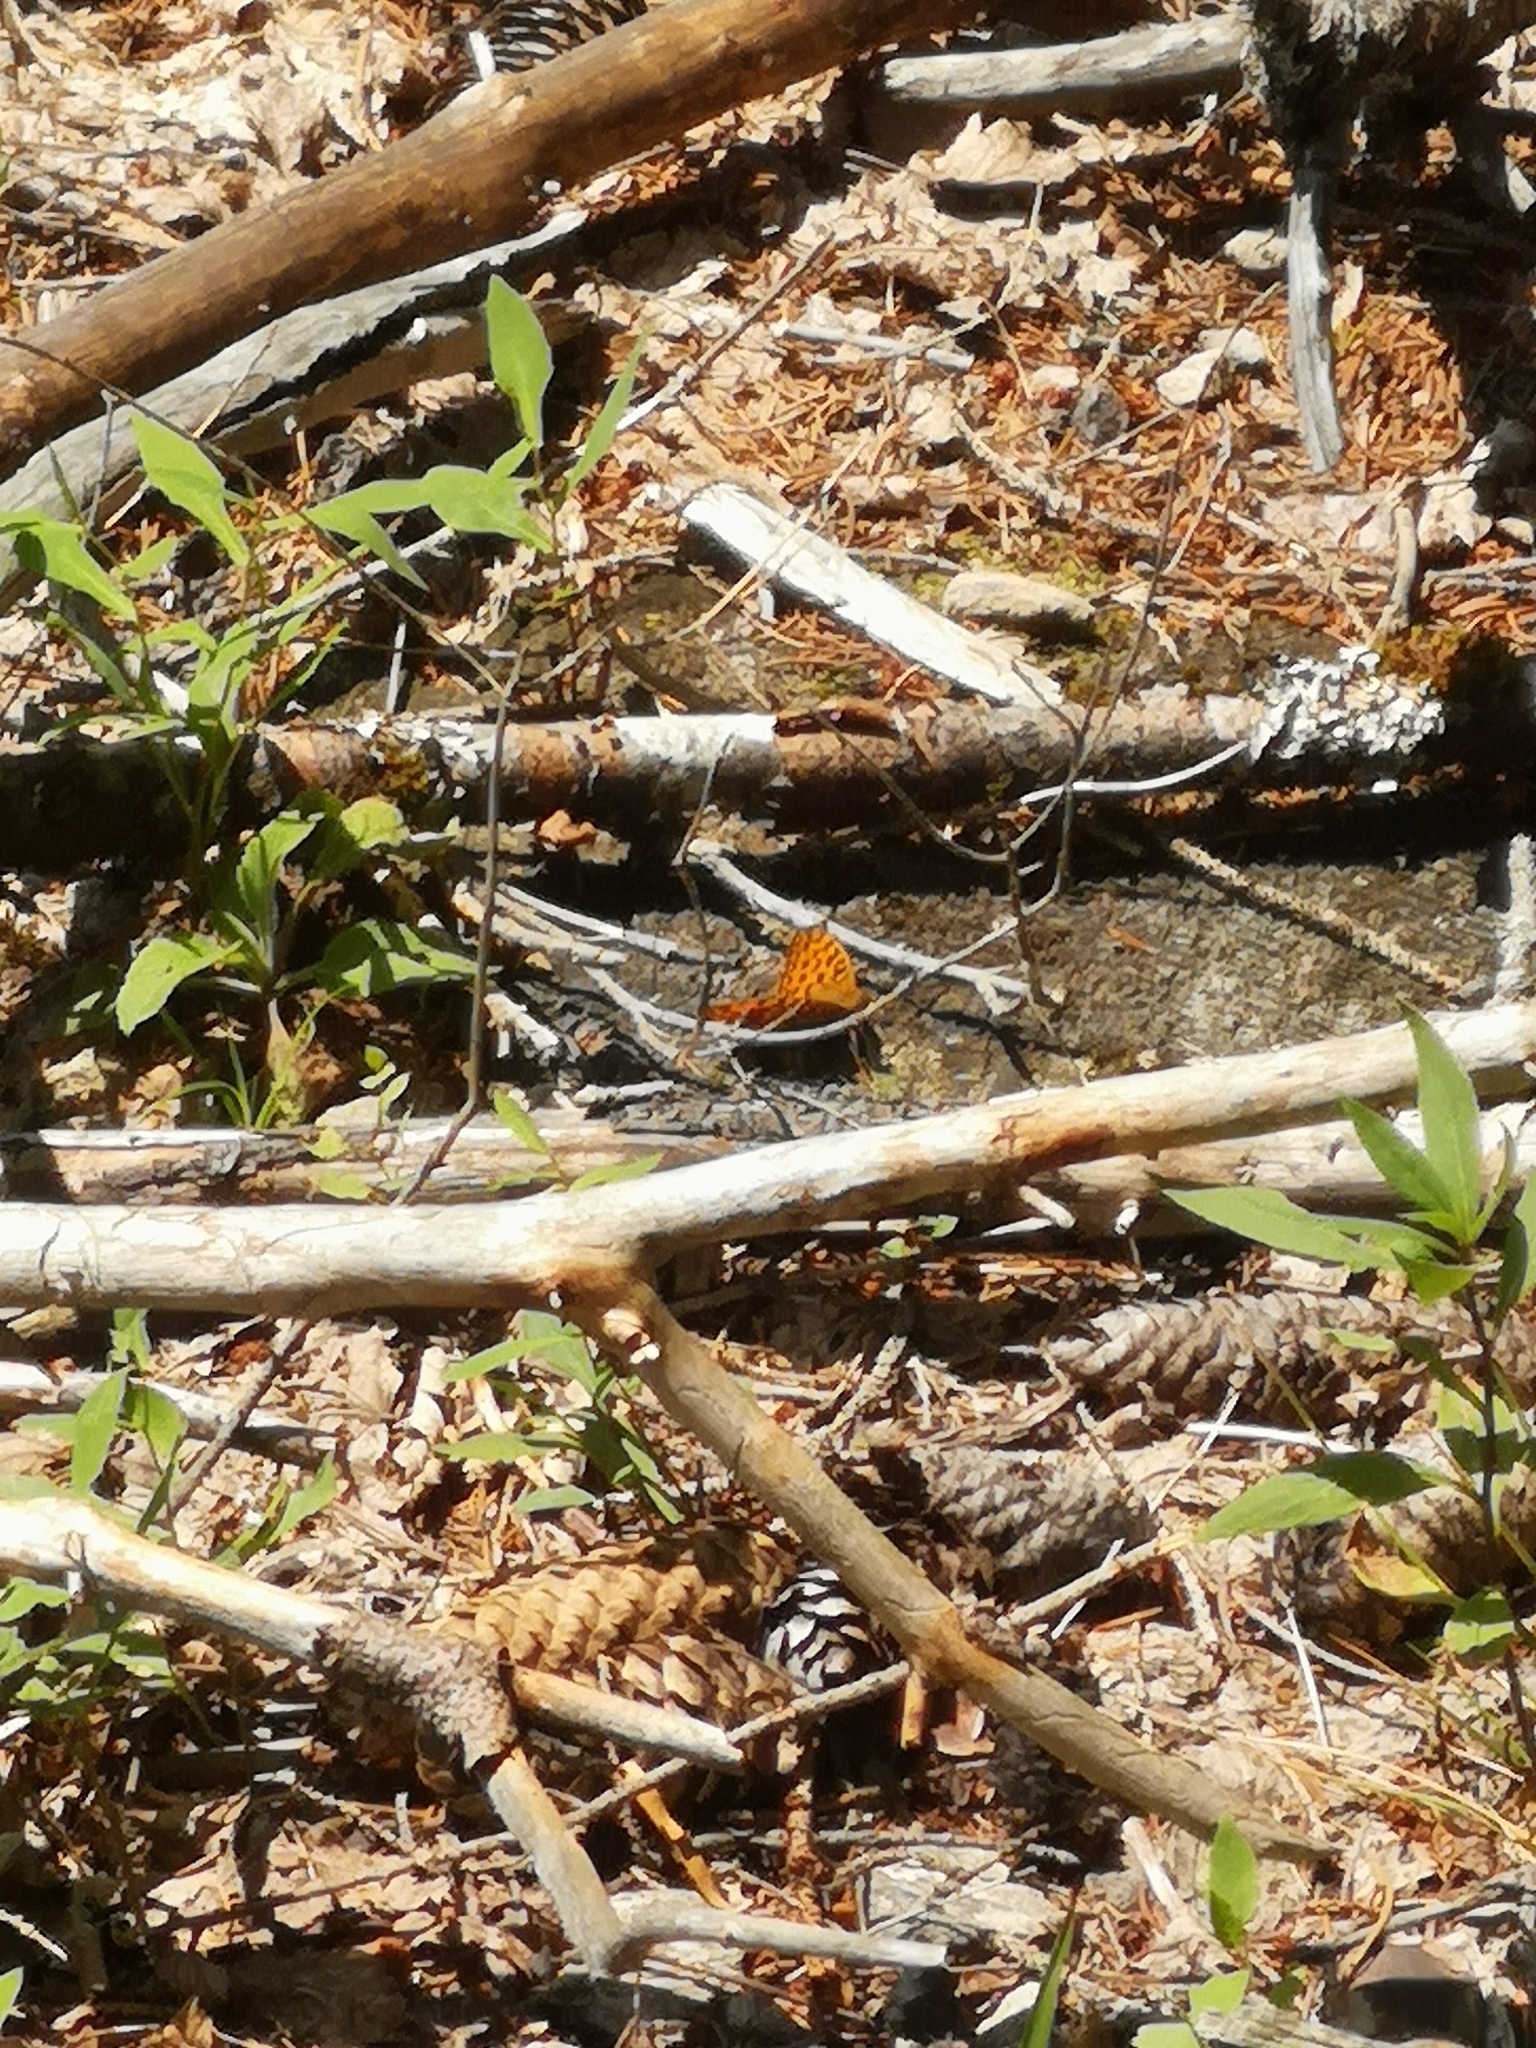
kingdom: Animalia
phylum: Arthropoda
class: Insecta
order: Lepidoptera
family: Nymphalidae
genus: Fabriciana
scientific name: Fabriciana adippe
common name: High brown fritillary
